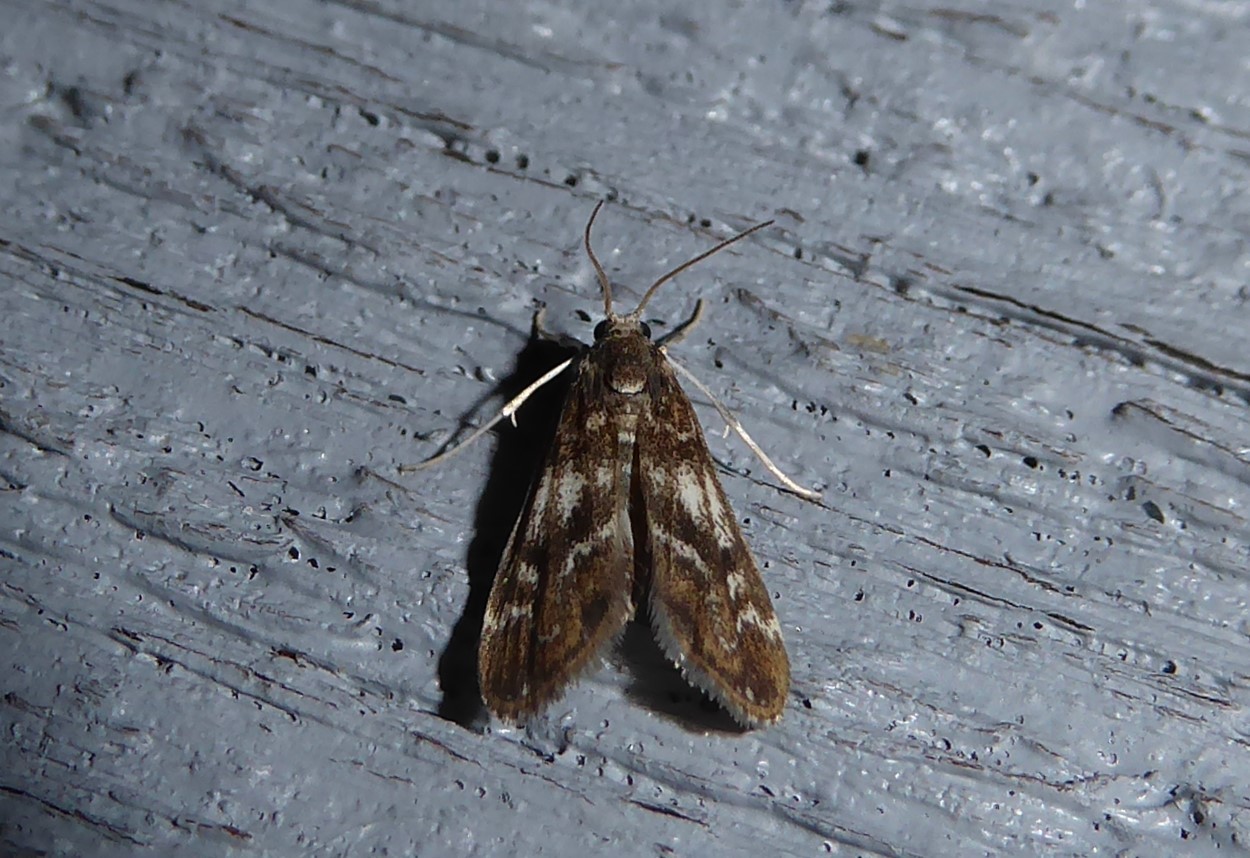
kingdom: Animalia
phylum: Arthropoda
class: Insecta
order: Lepidoptera
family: Crambidae
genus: Hygraula
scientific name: Hygraula nitens
